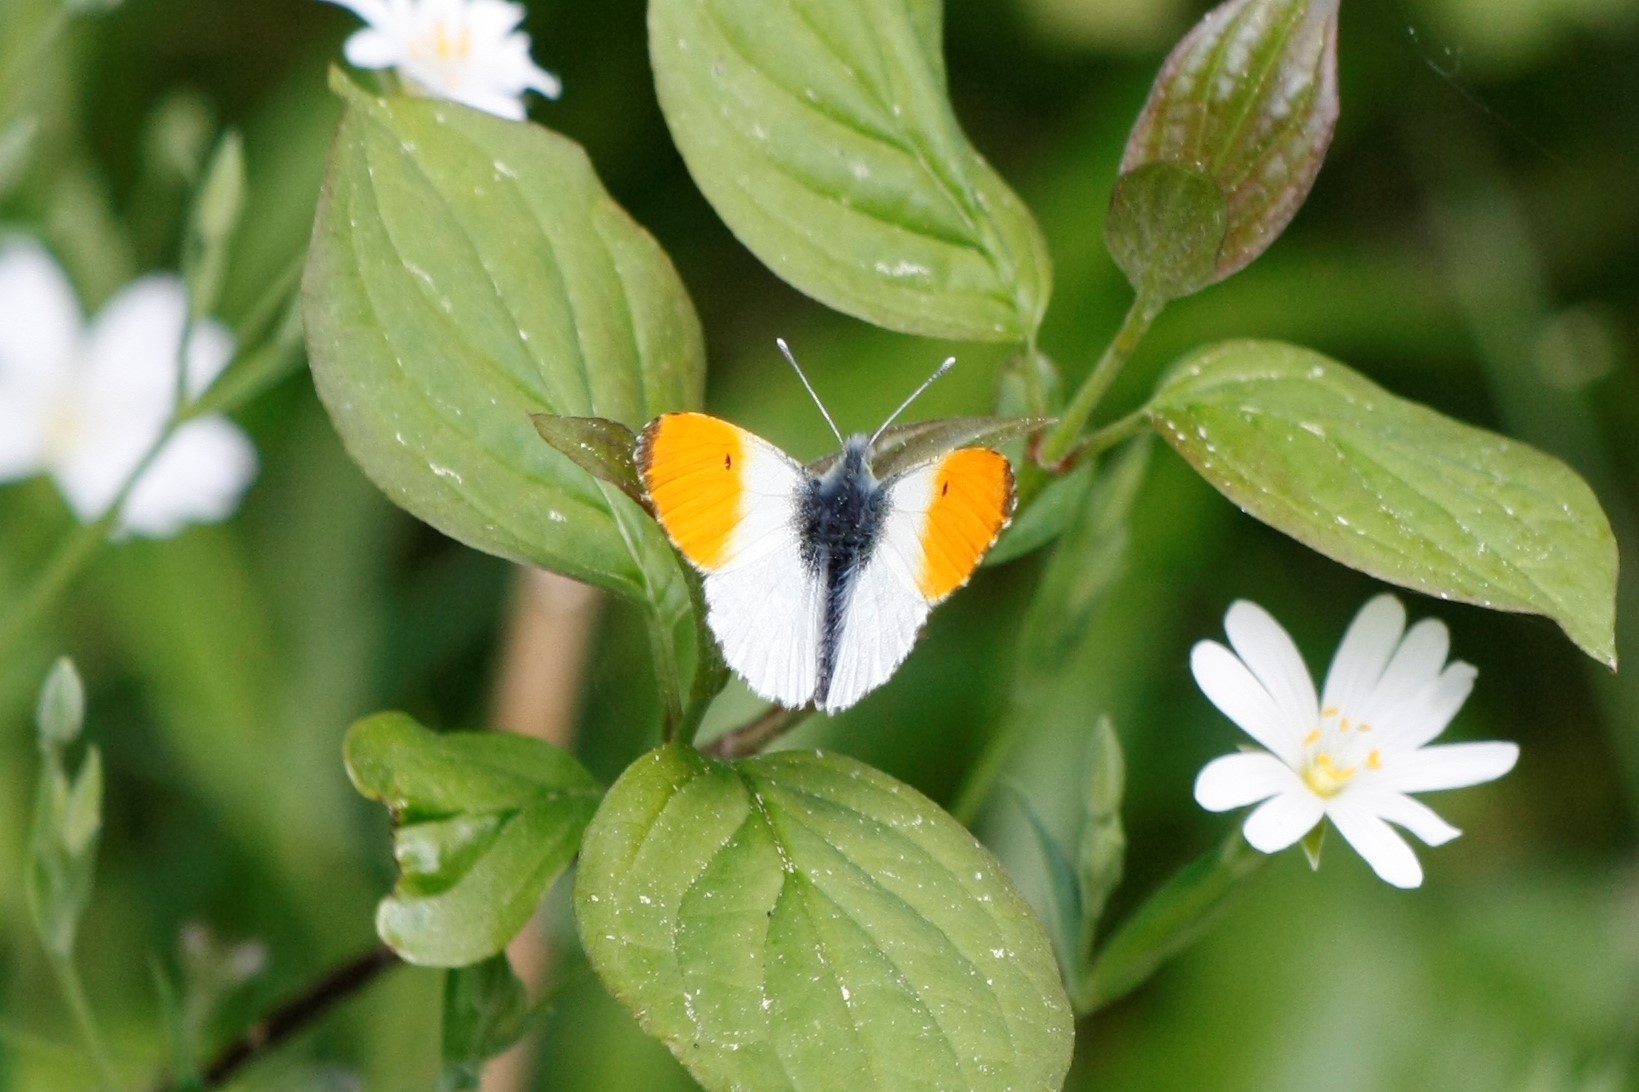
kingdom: Animalia
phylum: Arthropoda
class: Insecta
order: Lepidoptera
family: Pieridae
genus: Anthocharis
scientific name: Anthocharis cardamines
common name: Orange-tip
